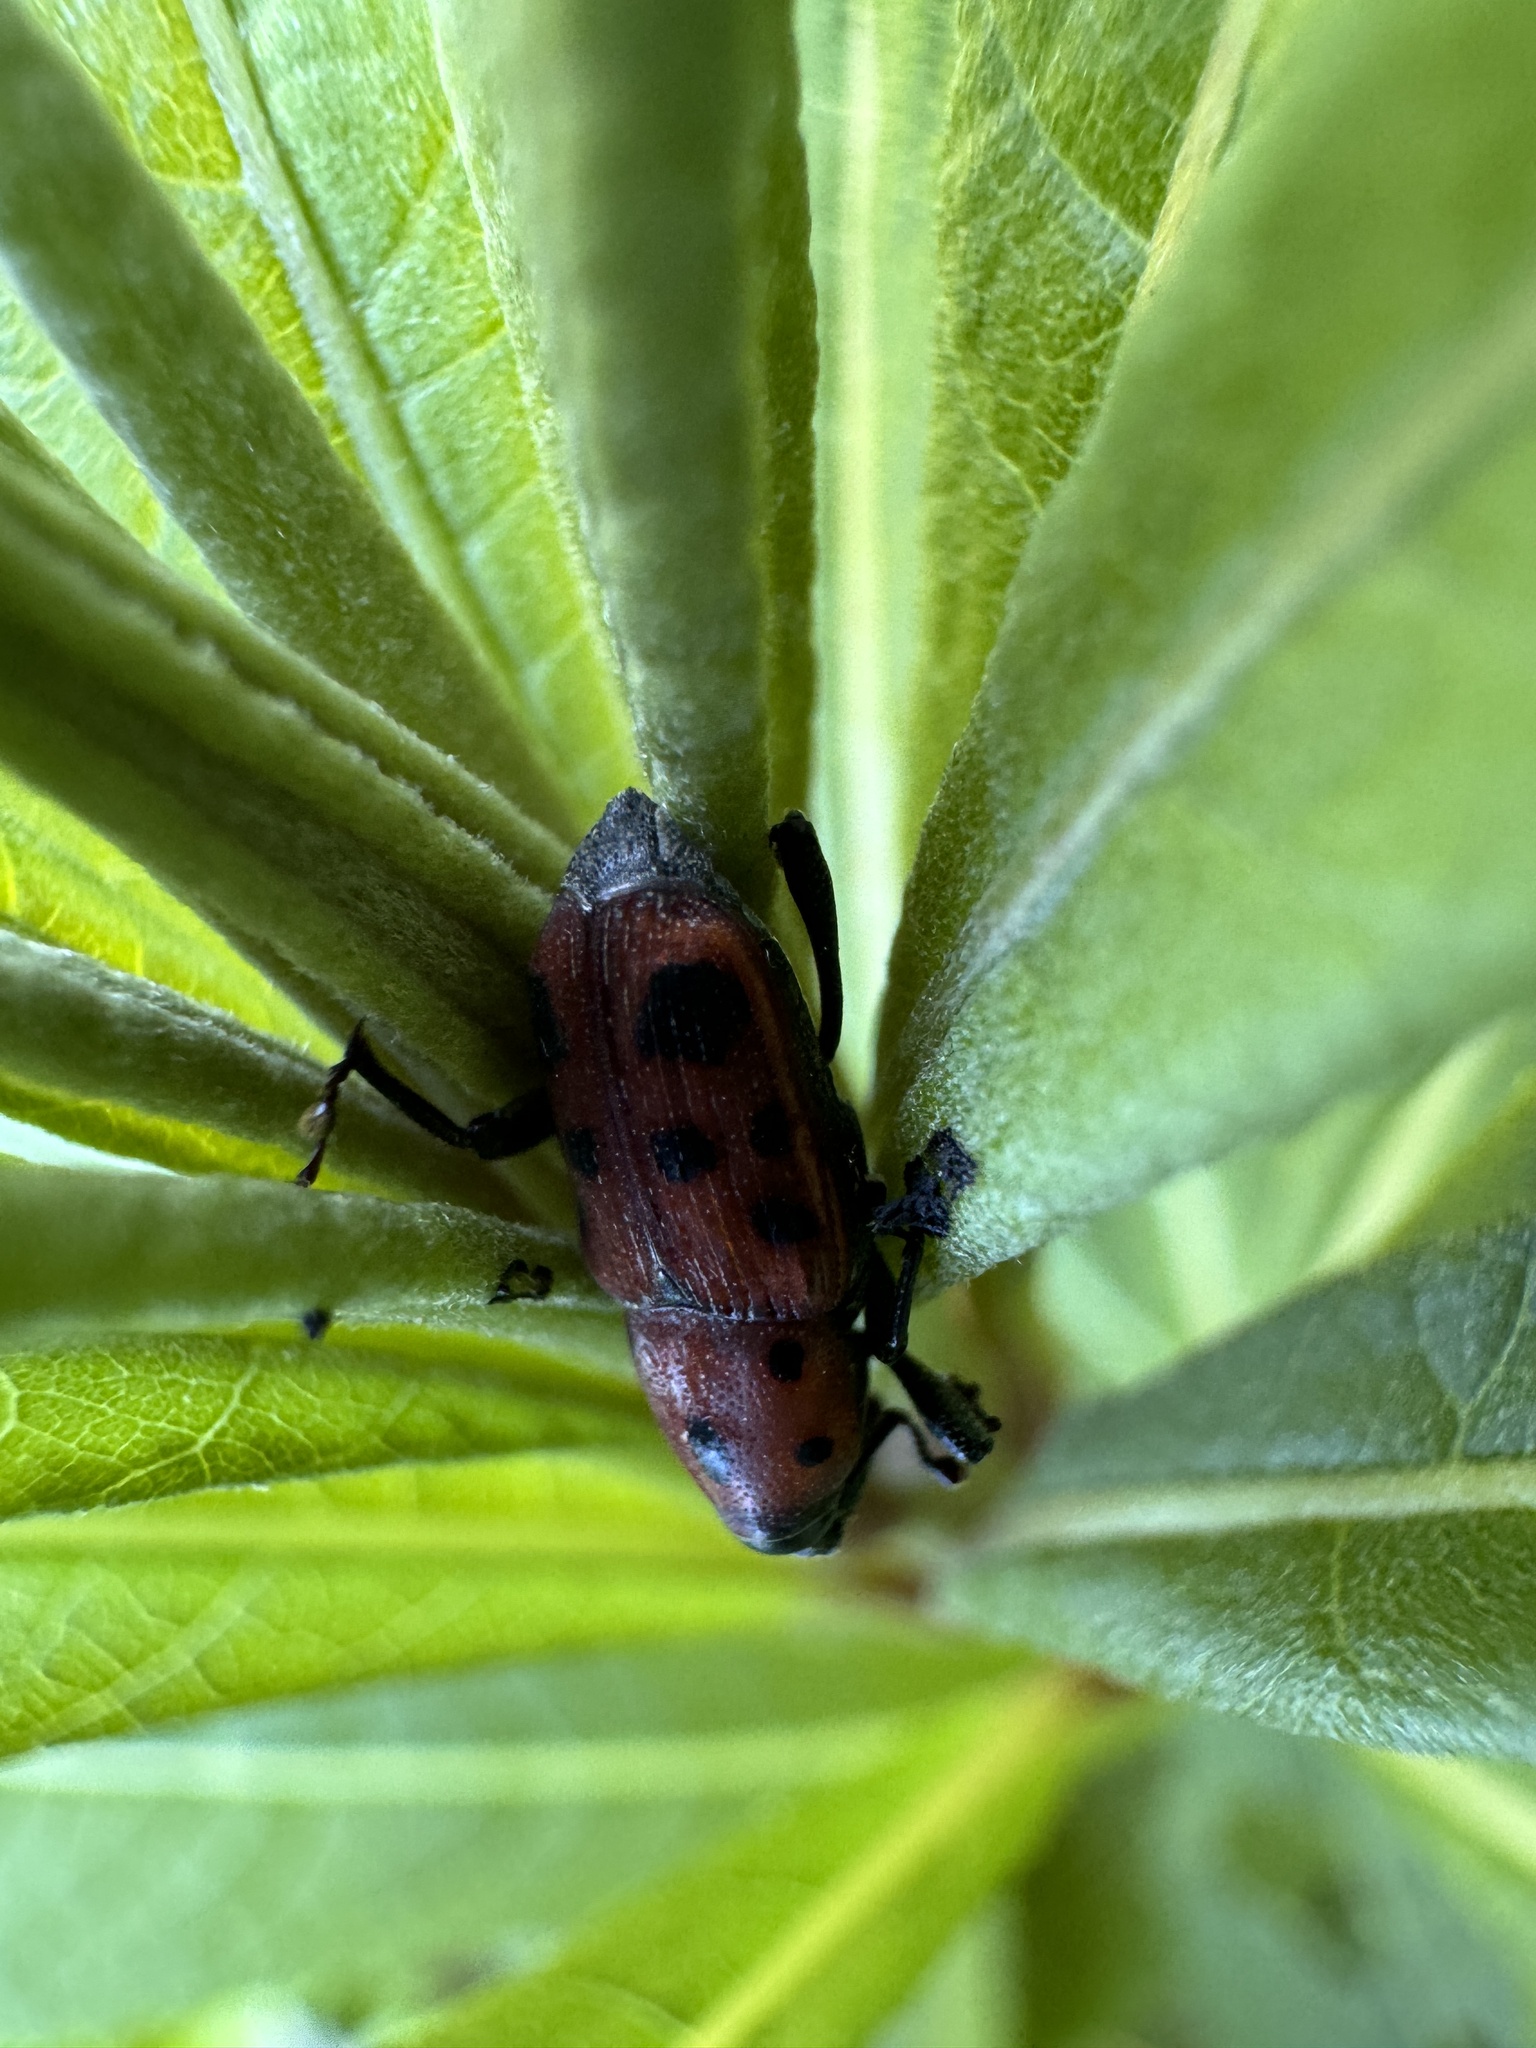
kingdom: Animalia
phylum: Arthropoda
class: Insecta
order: Coleoptera
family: Dryophthoridae
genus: Rhodobaenus
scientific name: Rhodobaenus tredecimpunctatus
